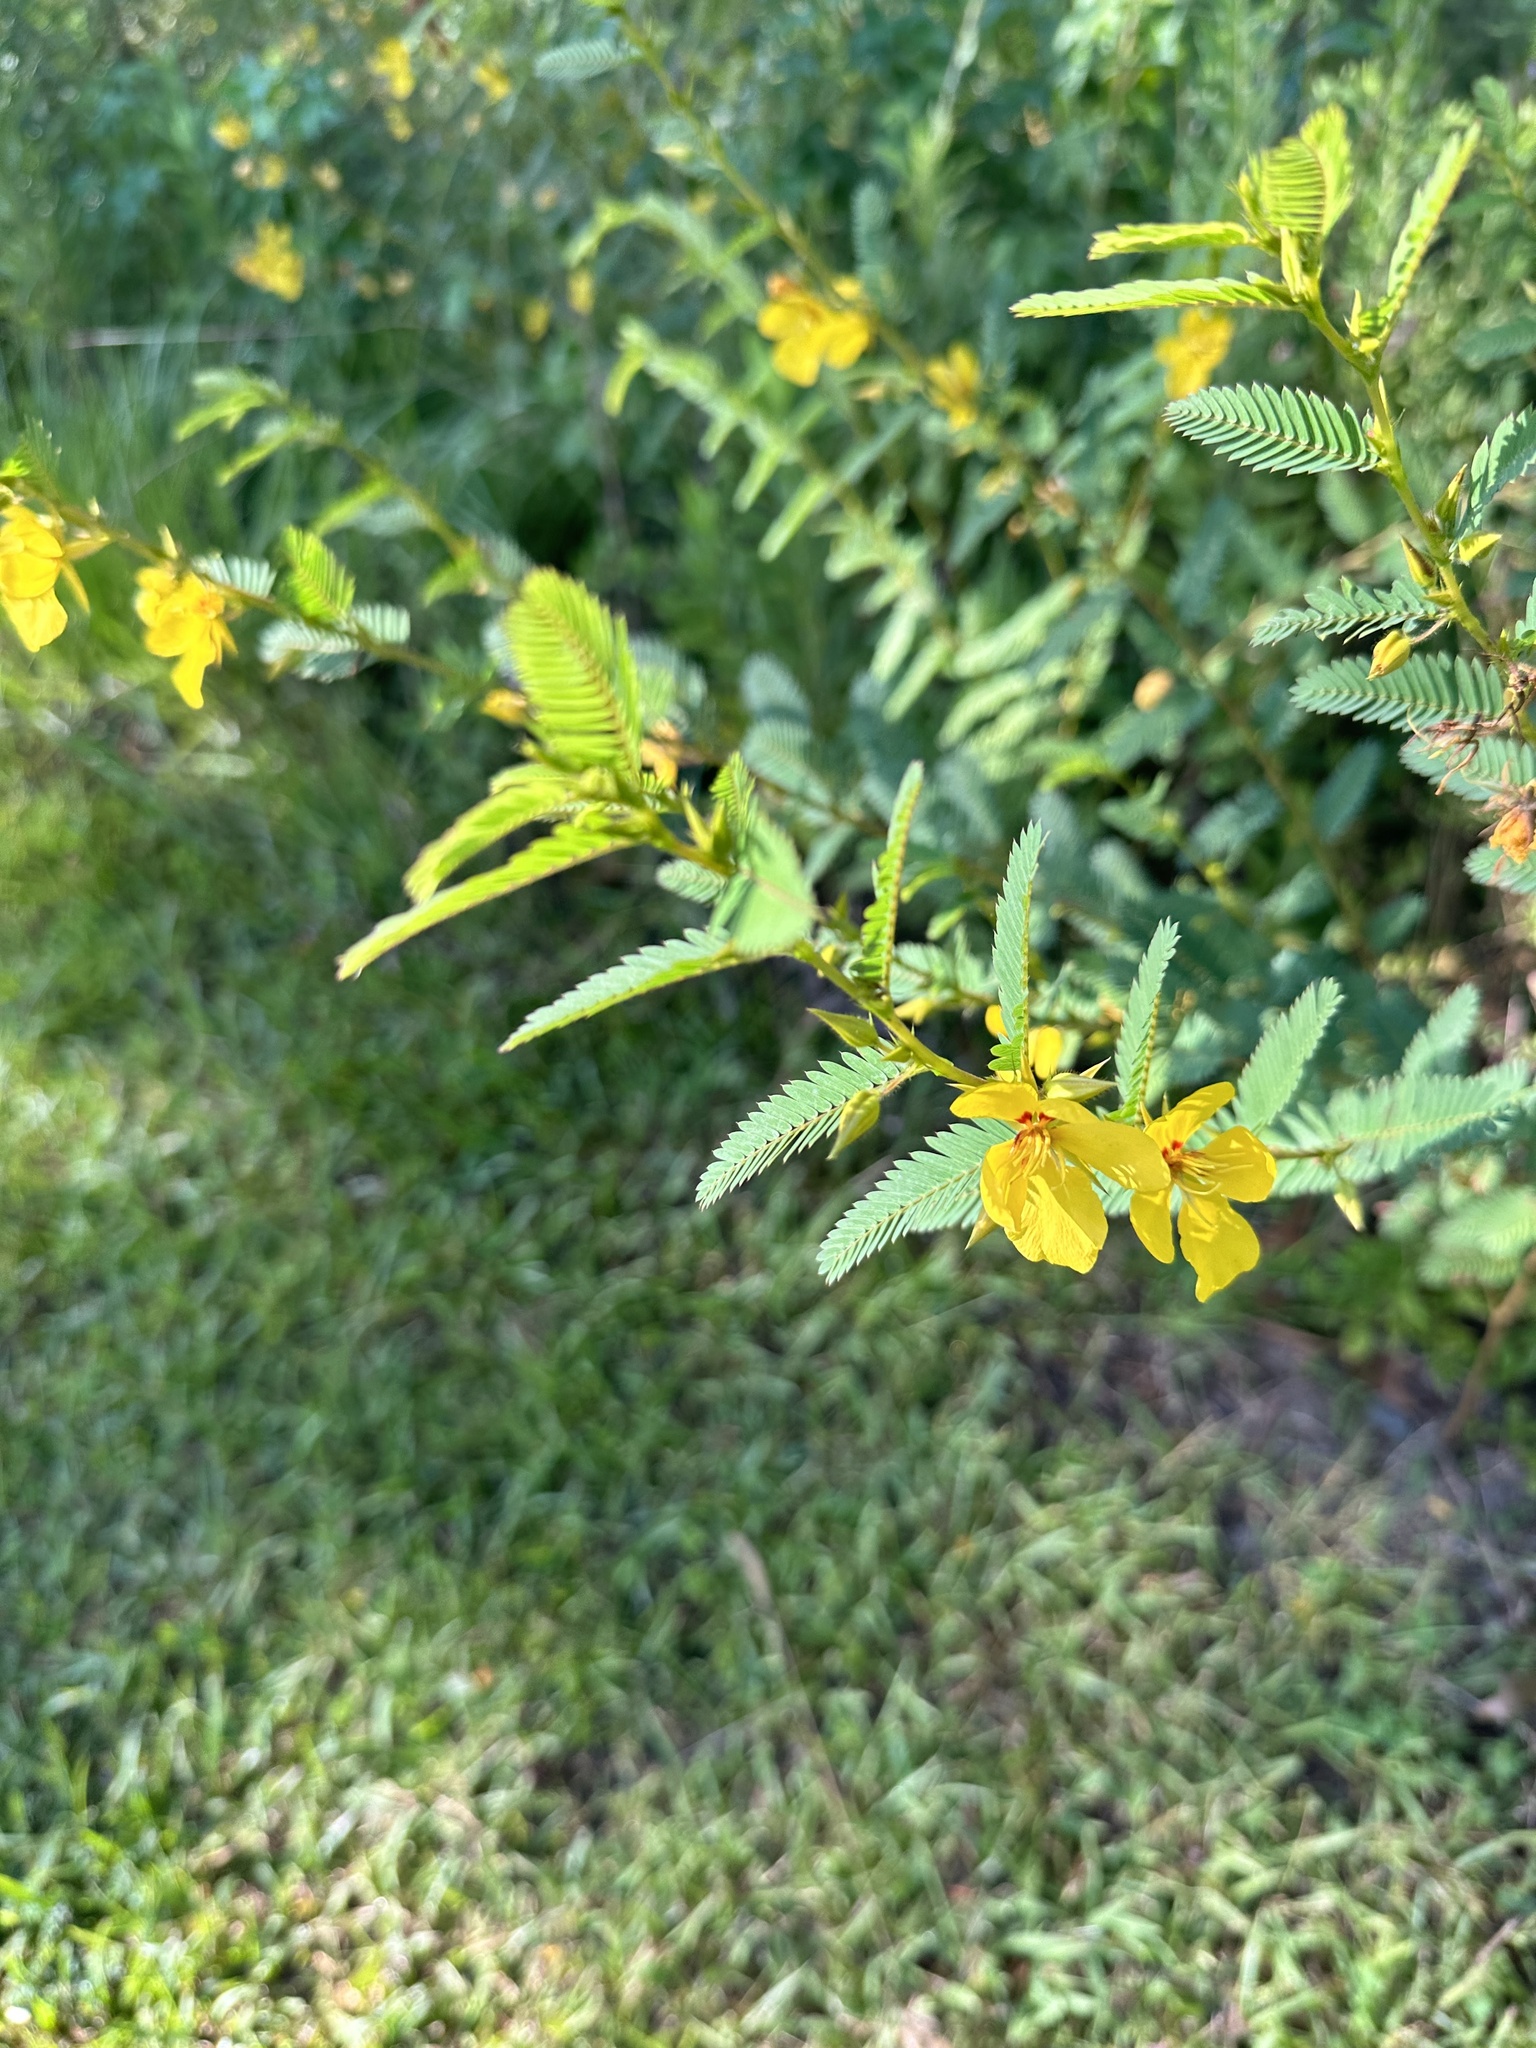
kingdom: Plantae
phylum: Tracheophyta
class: Magnoliopsida
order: Fabales
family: Fabaceae
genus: Chamaecrista
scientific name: Chamaecrista fasciculata
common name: Golden cassia
